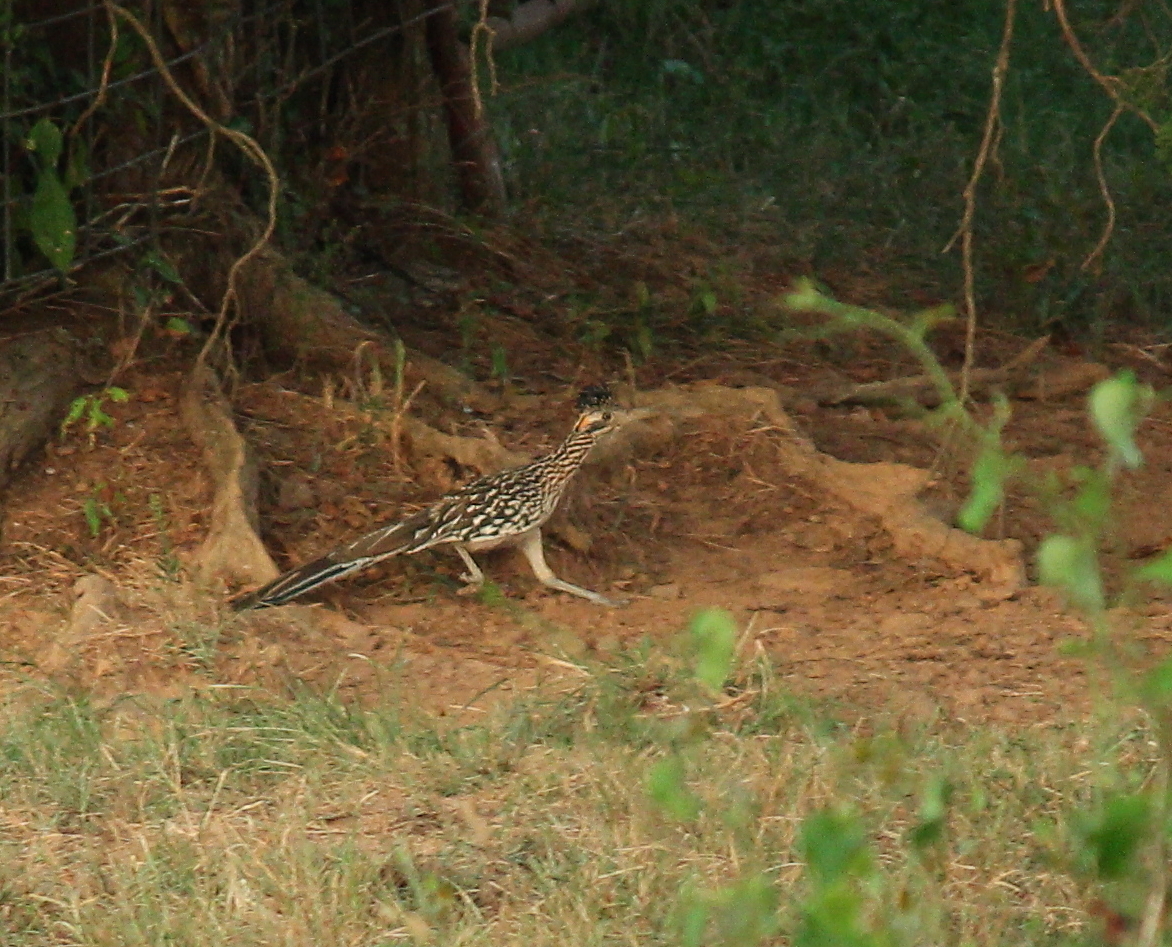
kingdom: Animalia
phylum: Chordata
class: Aves
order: Cuculiformes
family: Cuculidae
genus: Geococcyx
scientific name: Geococcyx californianus
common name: Greater roadrunner
